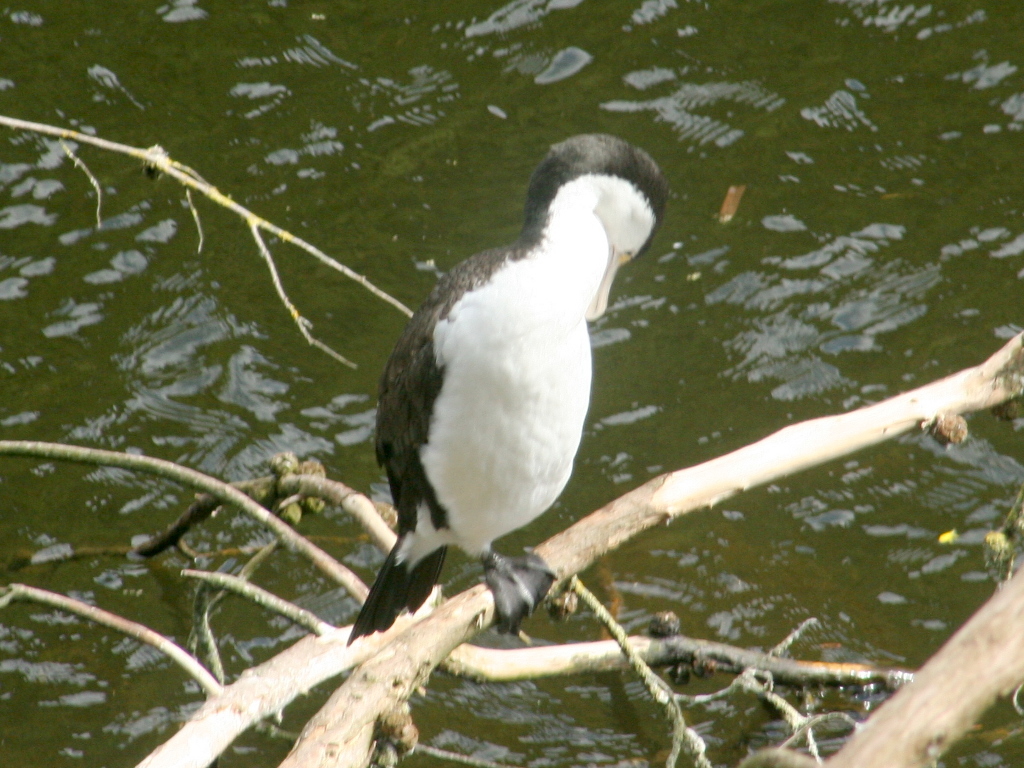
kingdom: Animalia
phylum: Chordata
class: Aves
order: Suliformes
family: Phalacrocoracidae
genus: Phalacrocorax
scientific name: Phalacrocorax varius
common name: Pied cormorant
